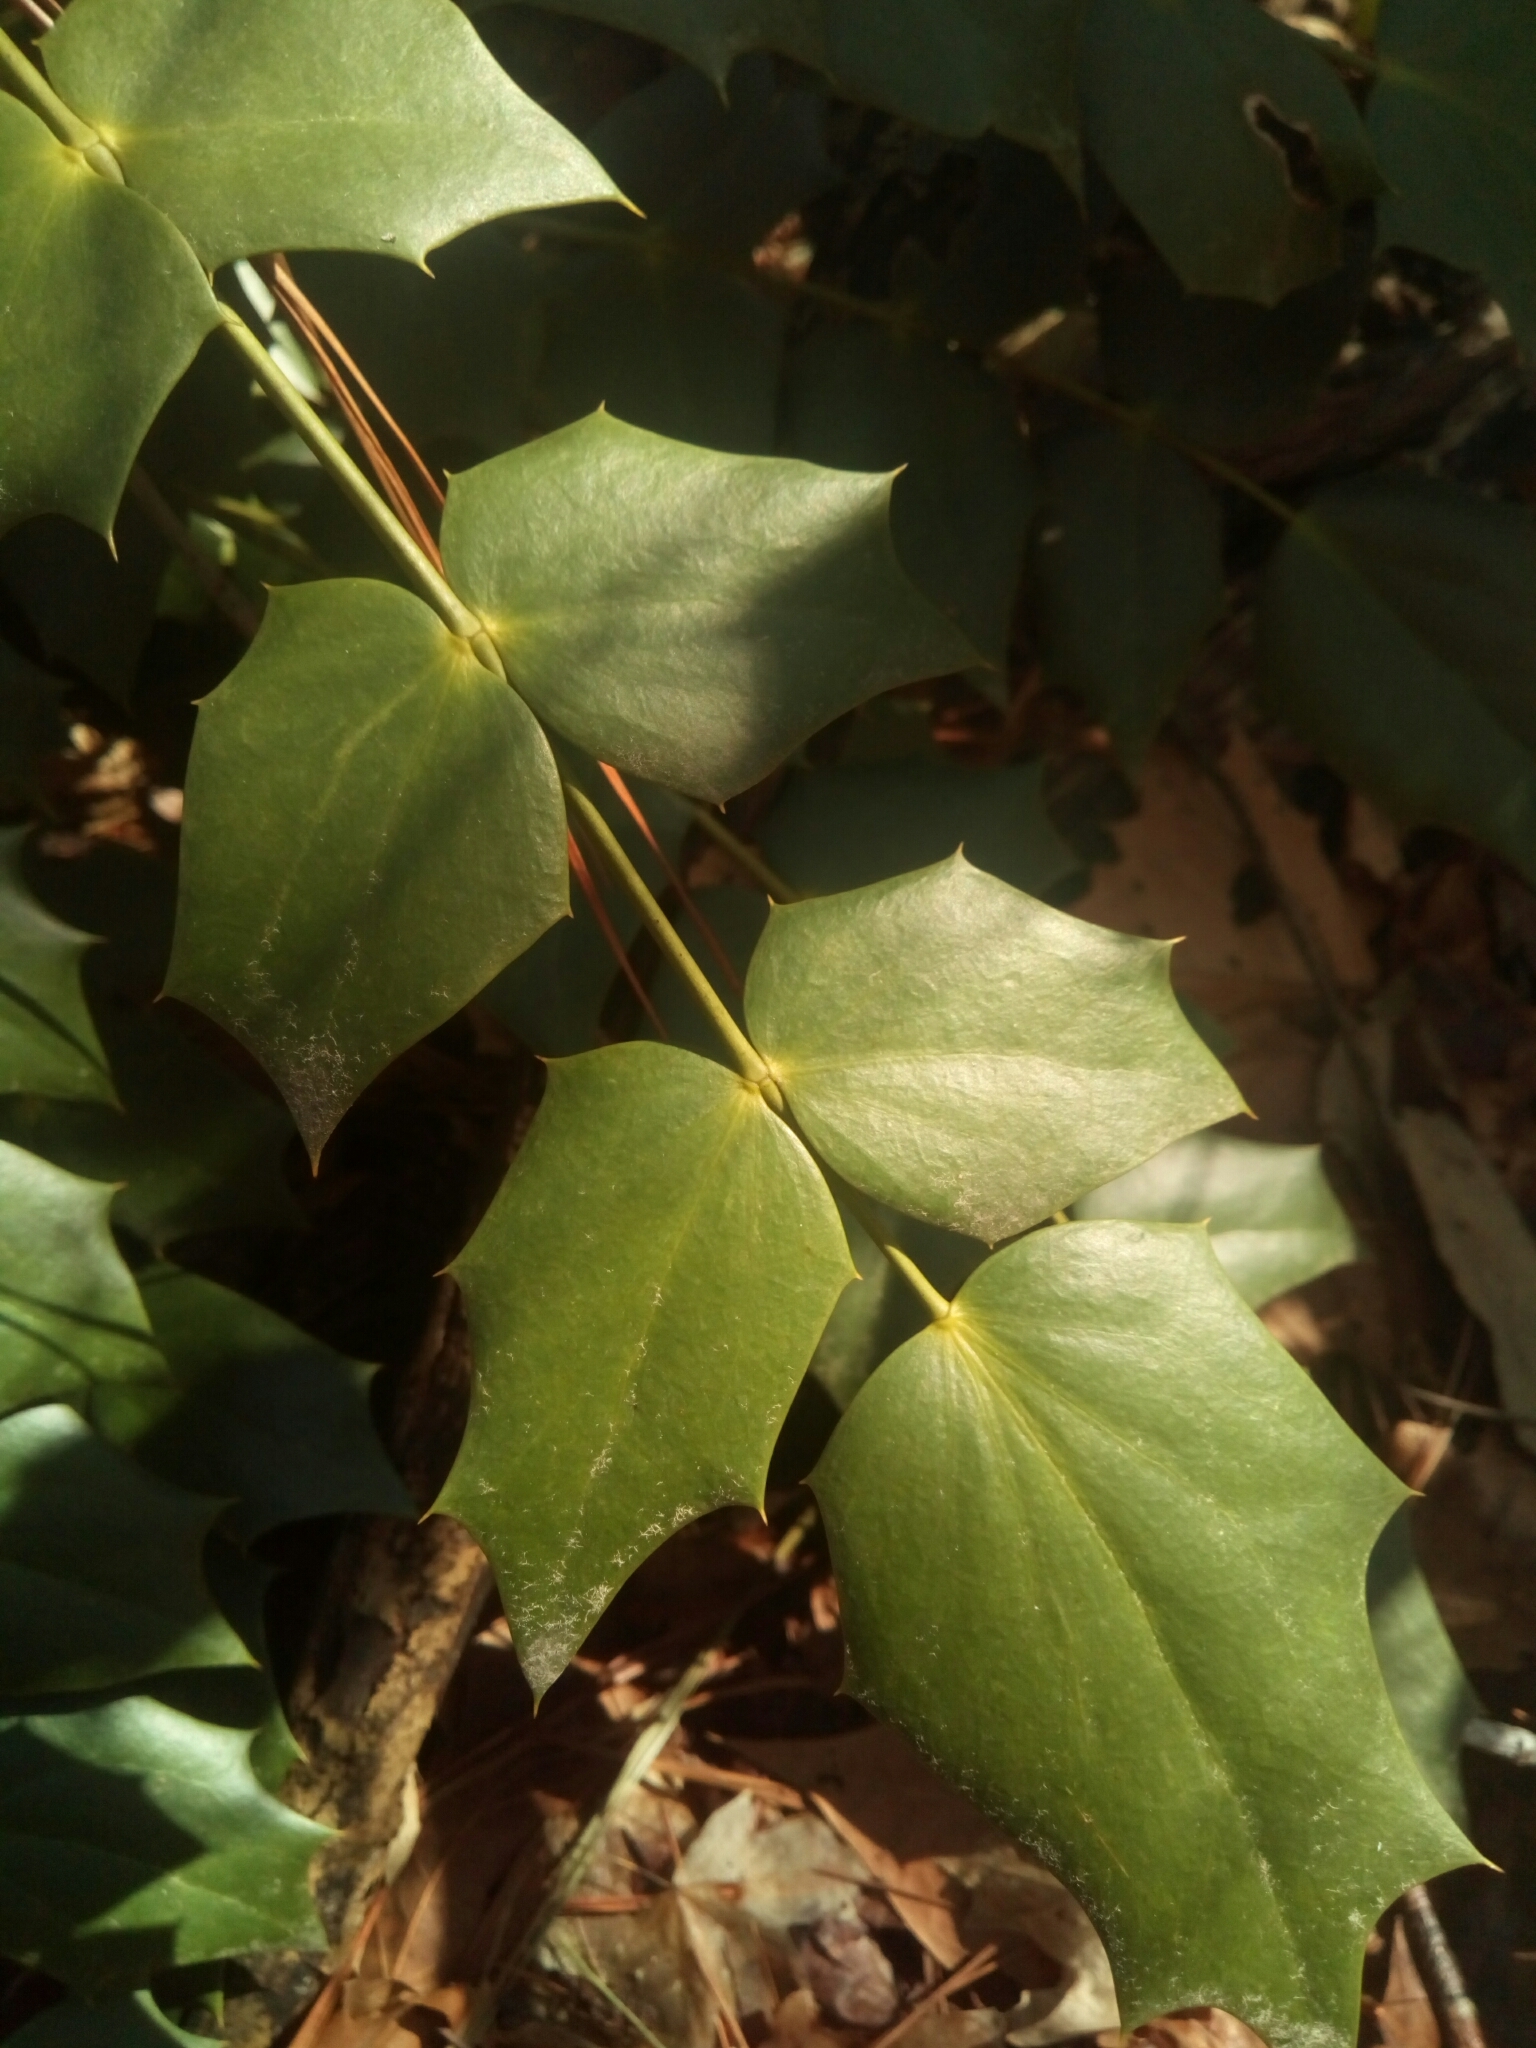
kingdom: Plantae
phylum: Tracheophyta
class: Magnoliopsida
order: Ranunculales
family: Berberidaceae
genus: Mahonia
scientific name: Mahonia bealei
